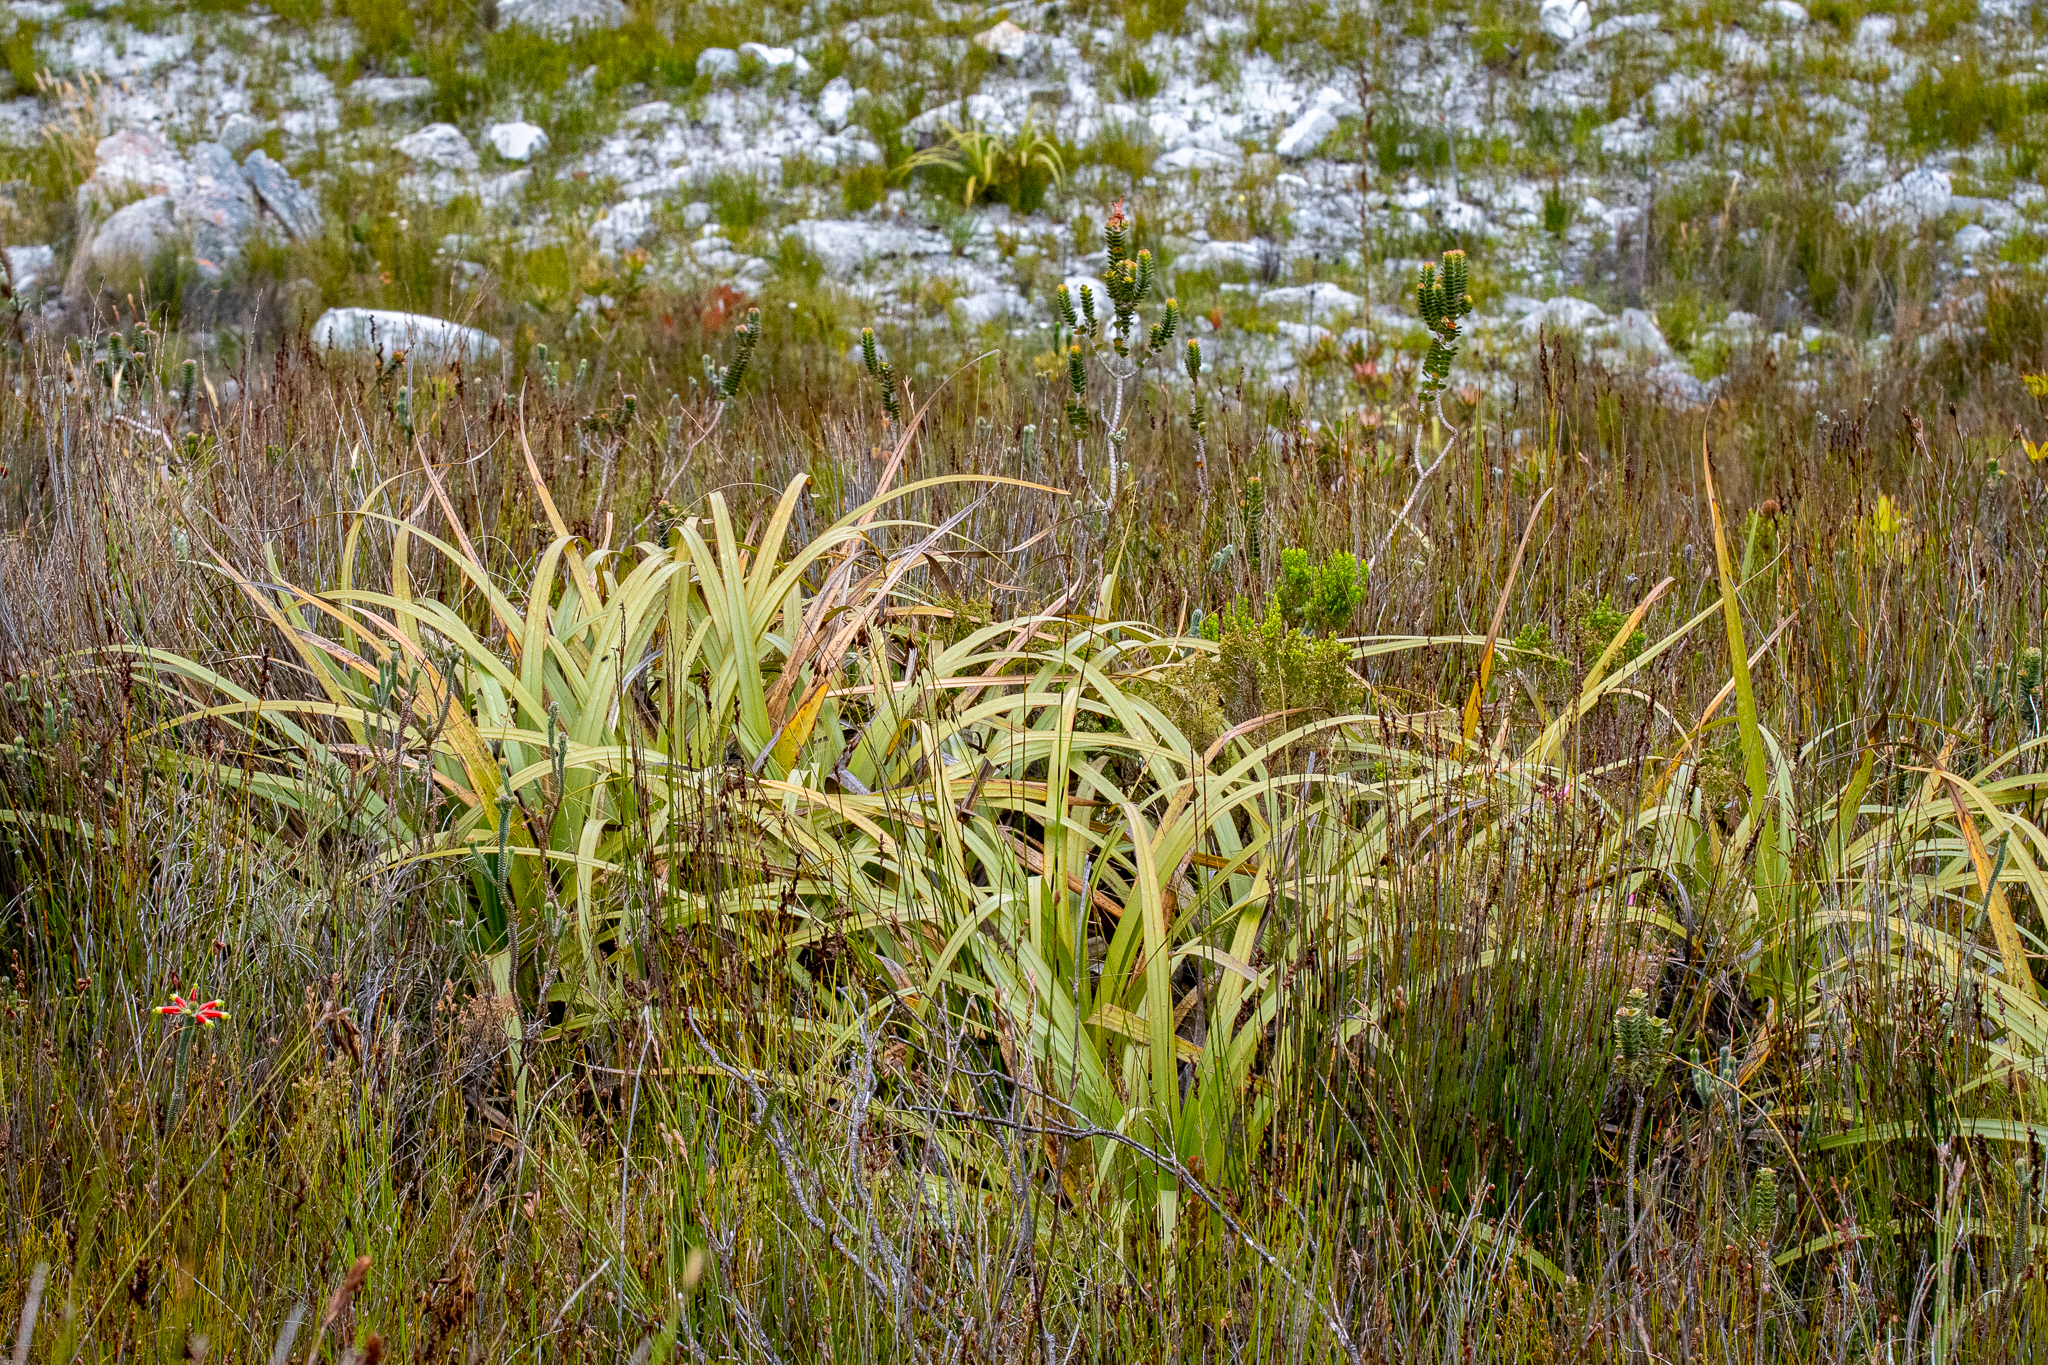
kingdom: Plantae
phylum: Tracheophyta
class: Liliopsida
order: Poales
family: Cyperaceae
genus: Tetraria
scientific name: Tetraria thermalis
